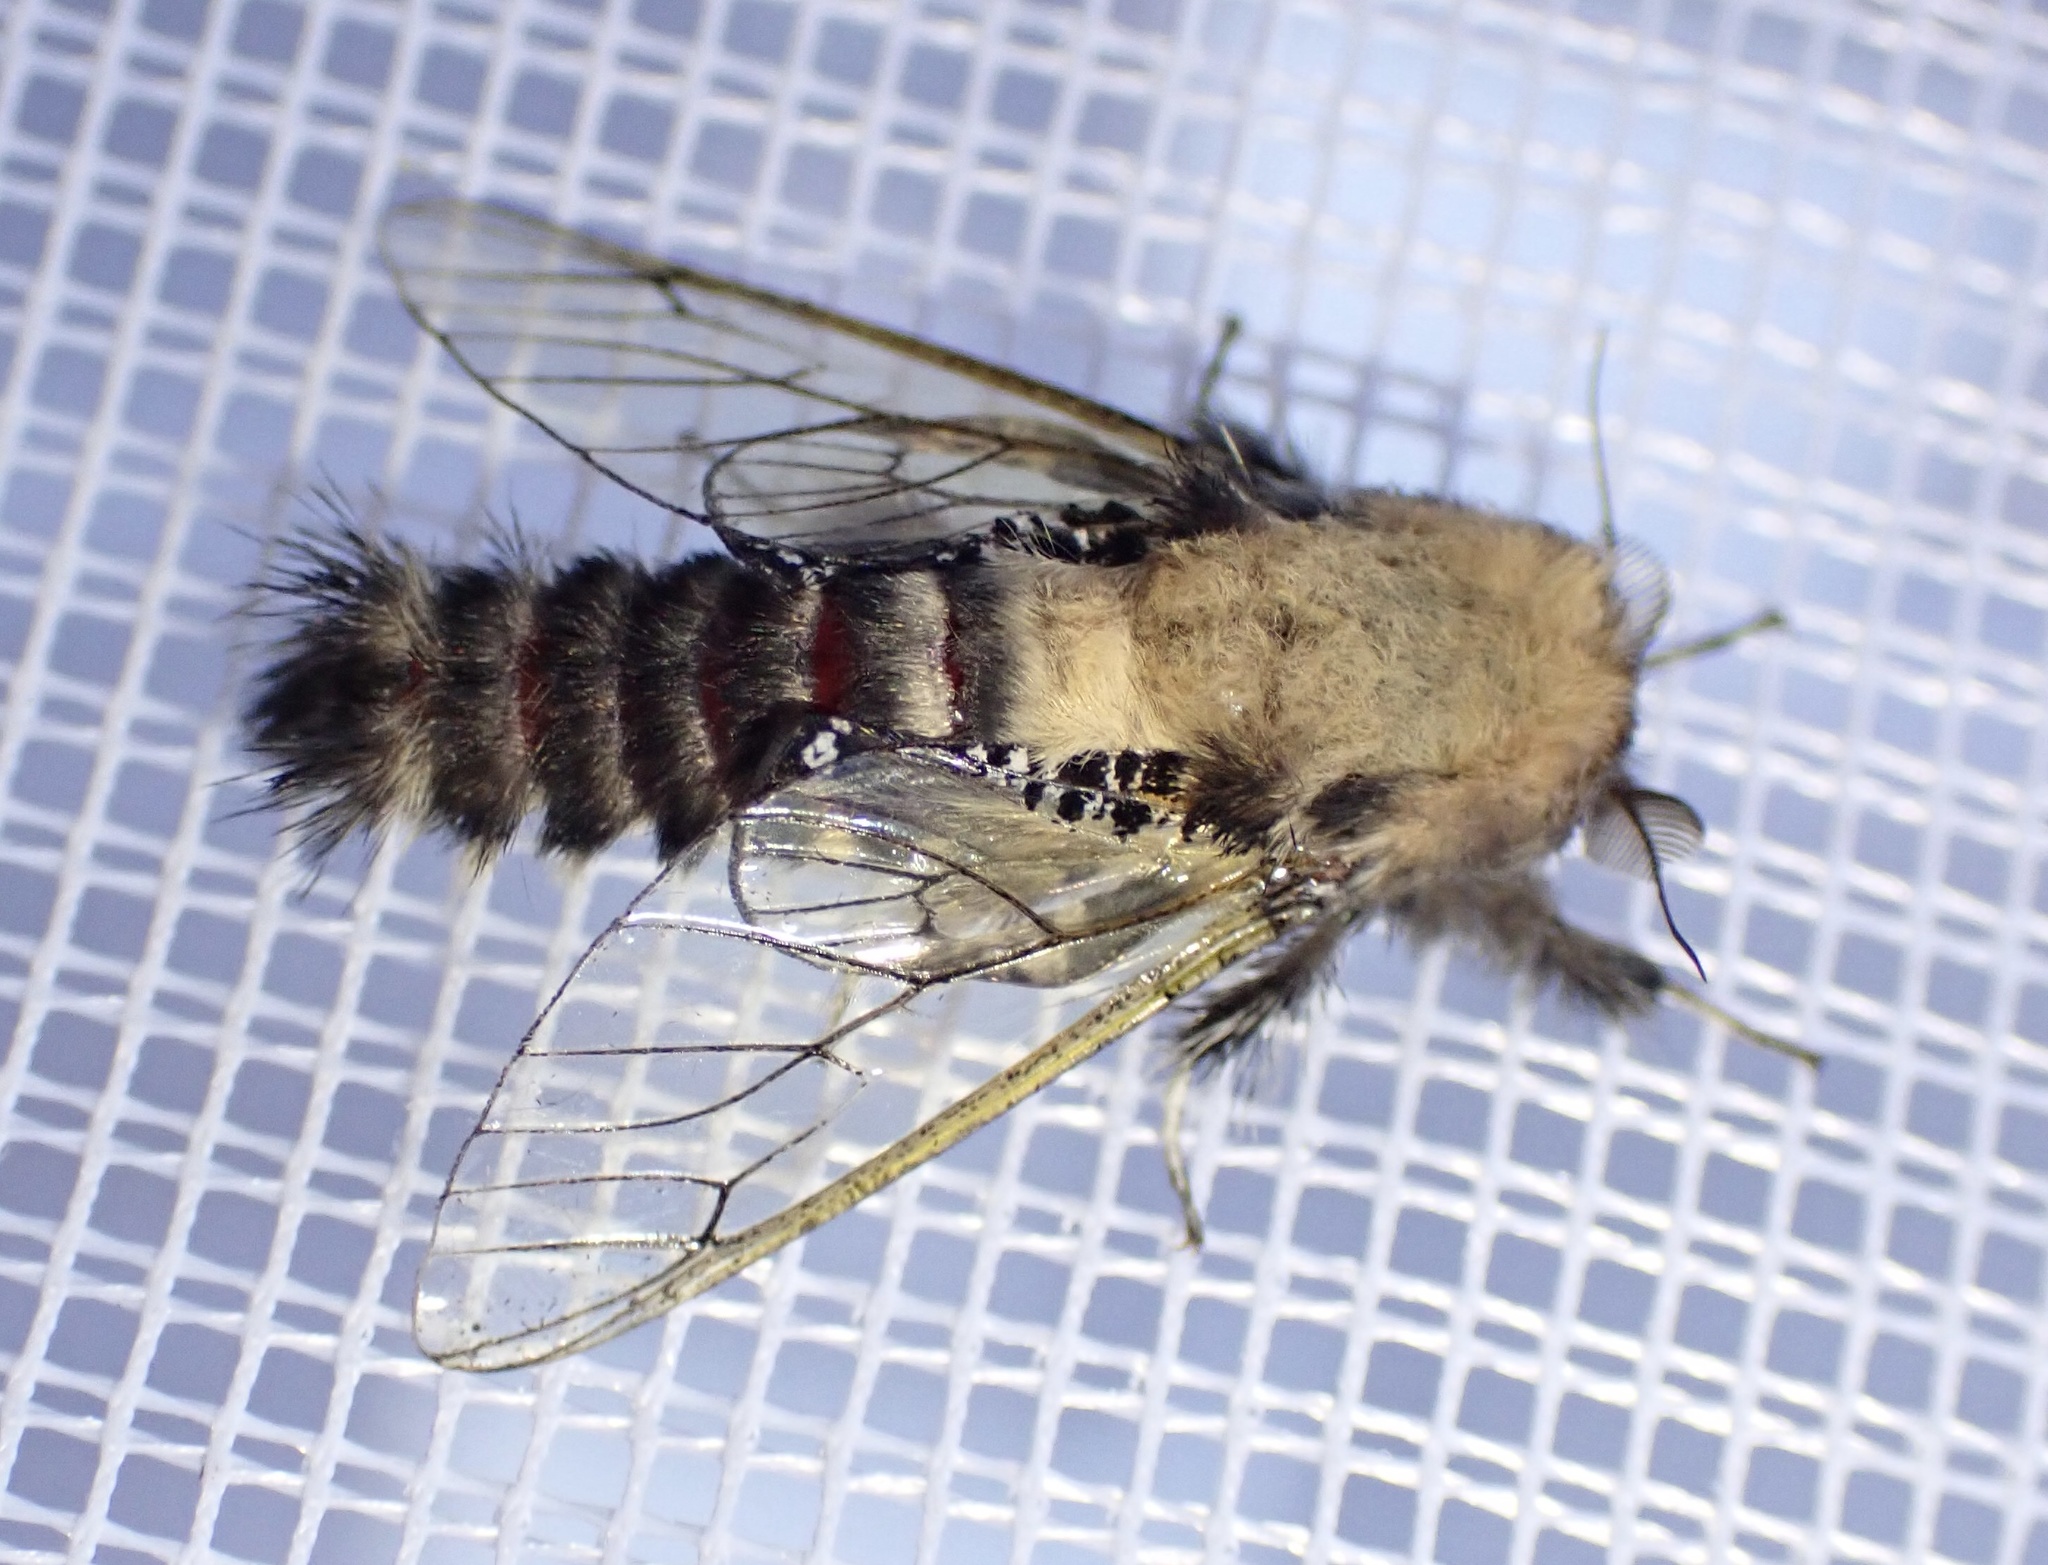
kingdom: Animalia
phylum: Arthropoda
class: Insecta
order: Lepidoptera
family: Cossidae
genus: Eulophonotus
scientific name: Eulophonotus myrmeleon
